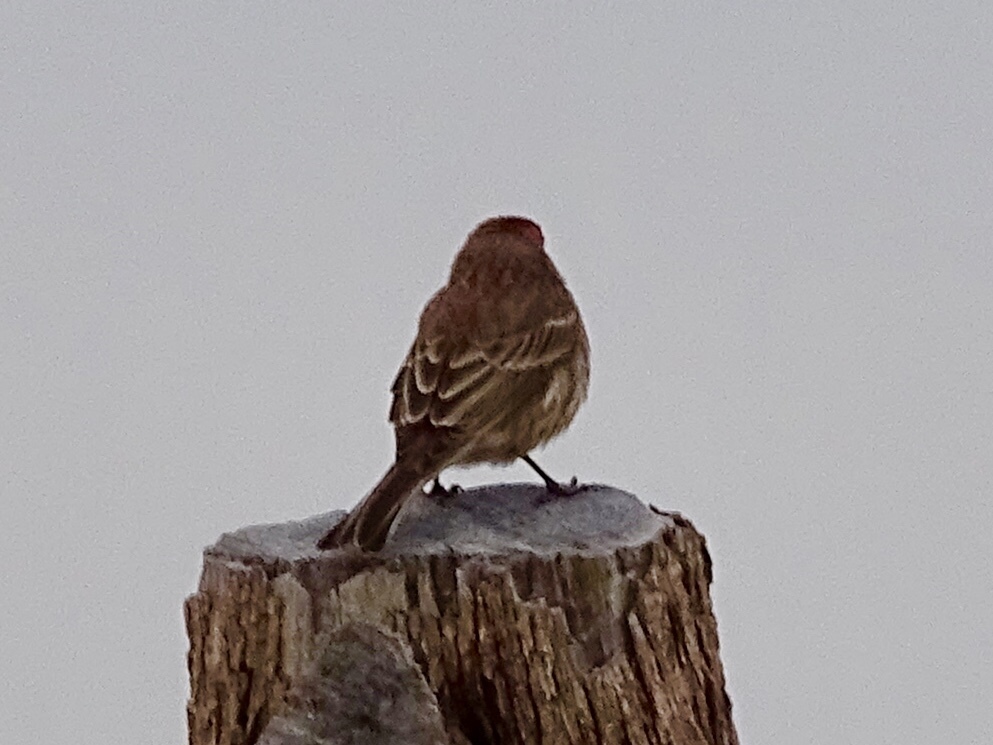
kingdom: Animalia
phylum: Chordata
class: Aves
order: Passeriformes
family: Fringillidae
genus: Haemorhous
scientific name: Haemorhous mexicanus
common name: House finch
